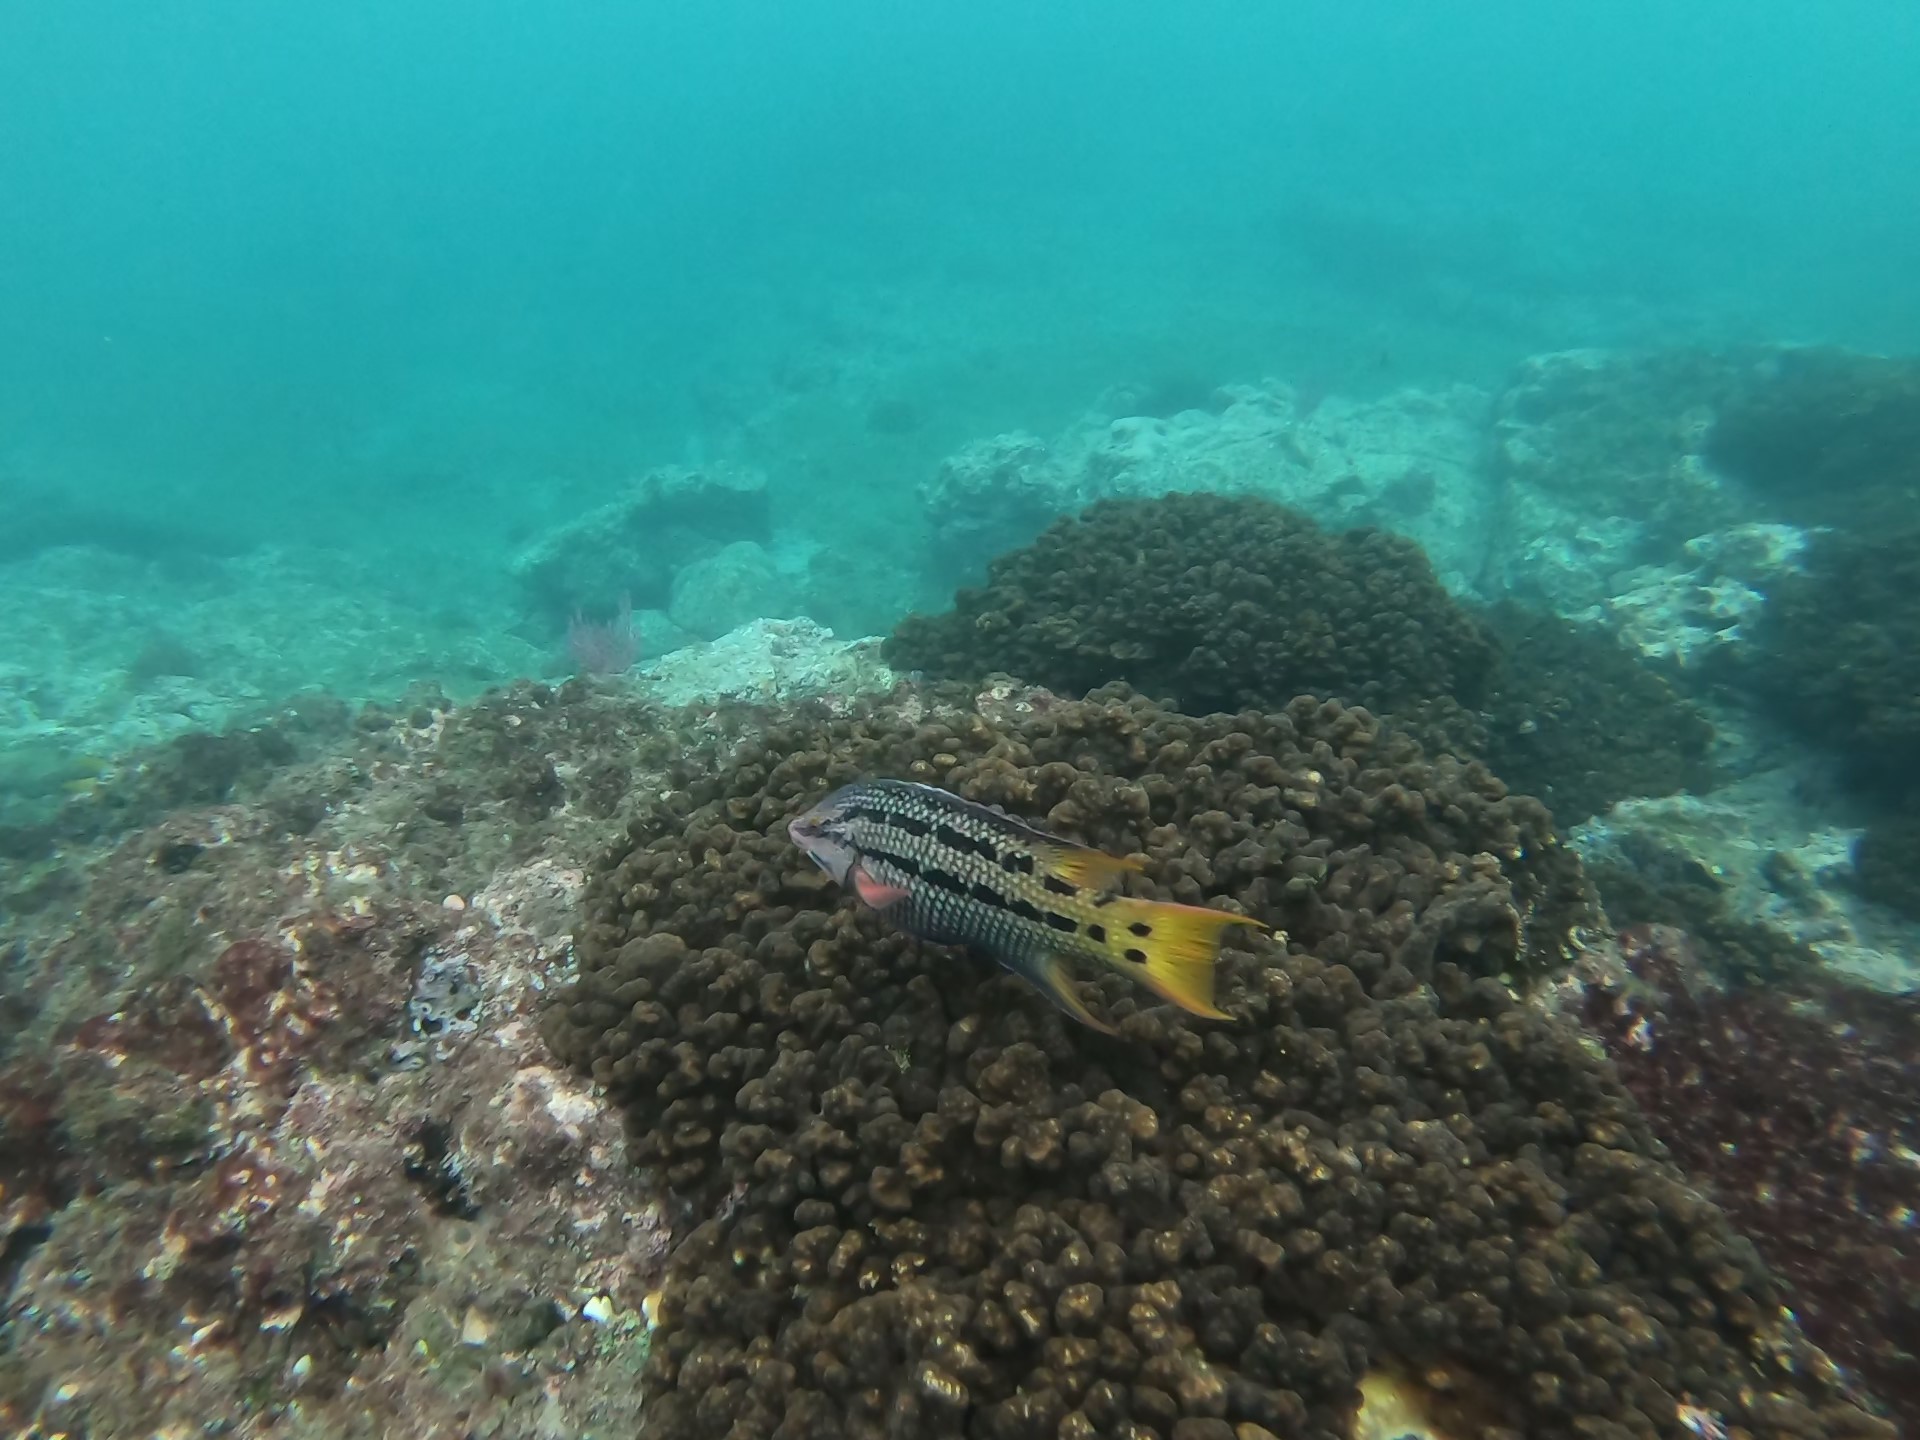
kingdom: Animalia
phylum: Chordata
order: Perciformes
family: Labridae
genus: Bodianus
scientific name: Bodianus diplotaenia
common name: Mexican hogfish
